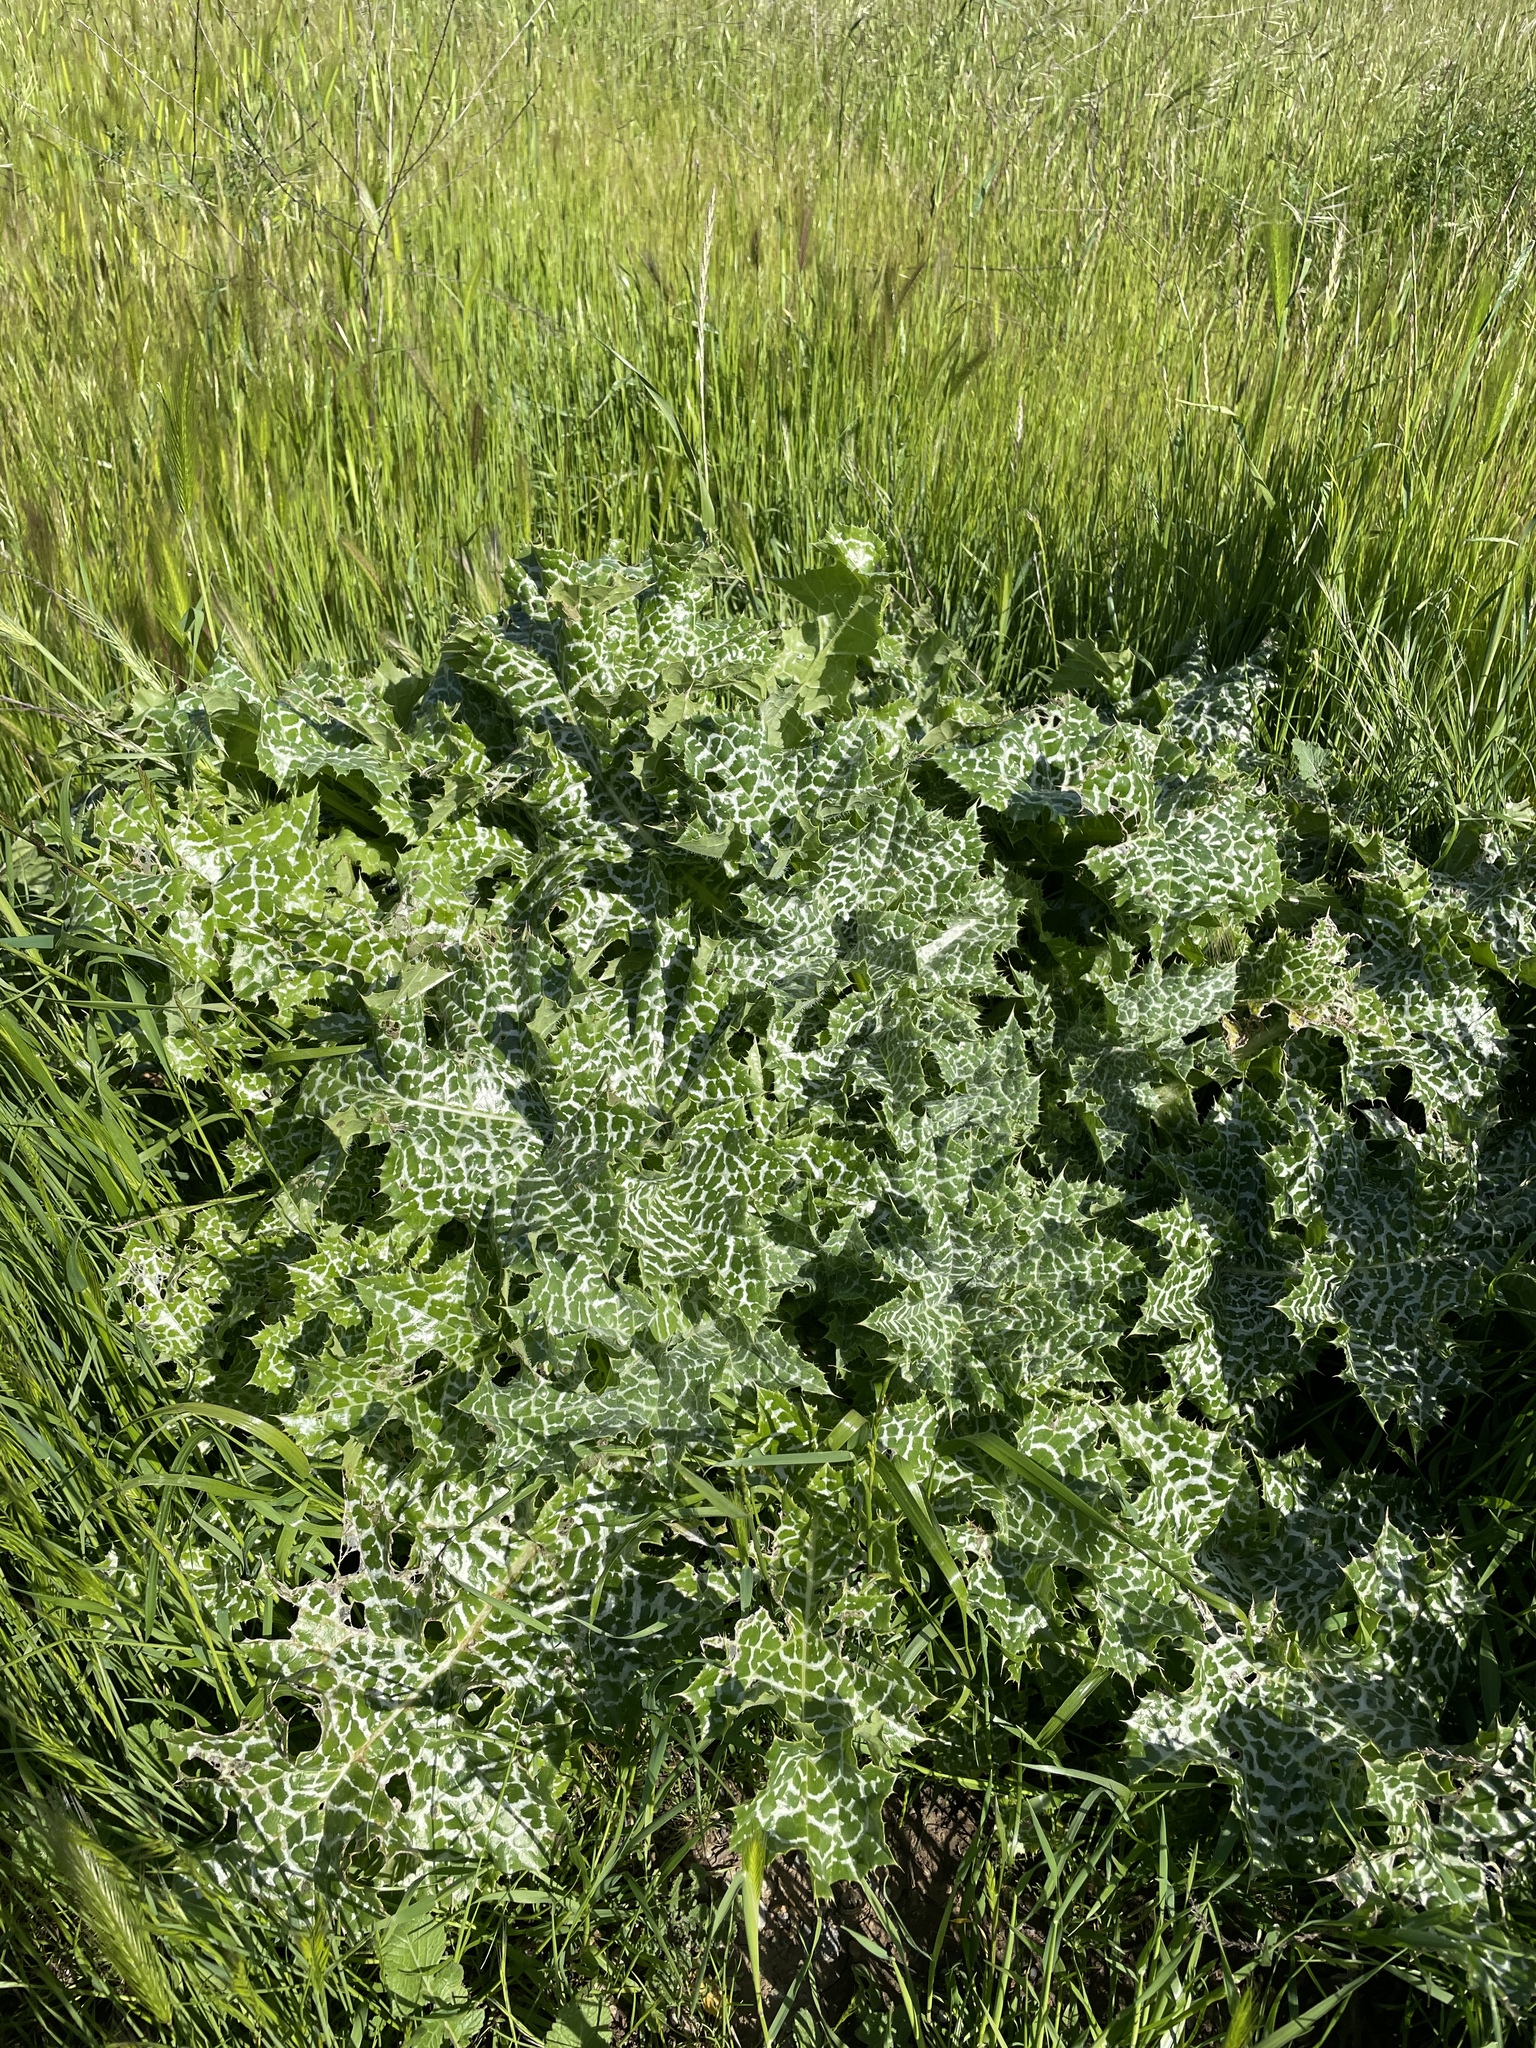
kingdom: Plantae
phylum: Tracheophyta
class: Magnoliopsida
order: Asterales
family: Asteraceae
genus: Silybum
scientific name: Silybum marianum
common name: Milk thistle
